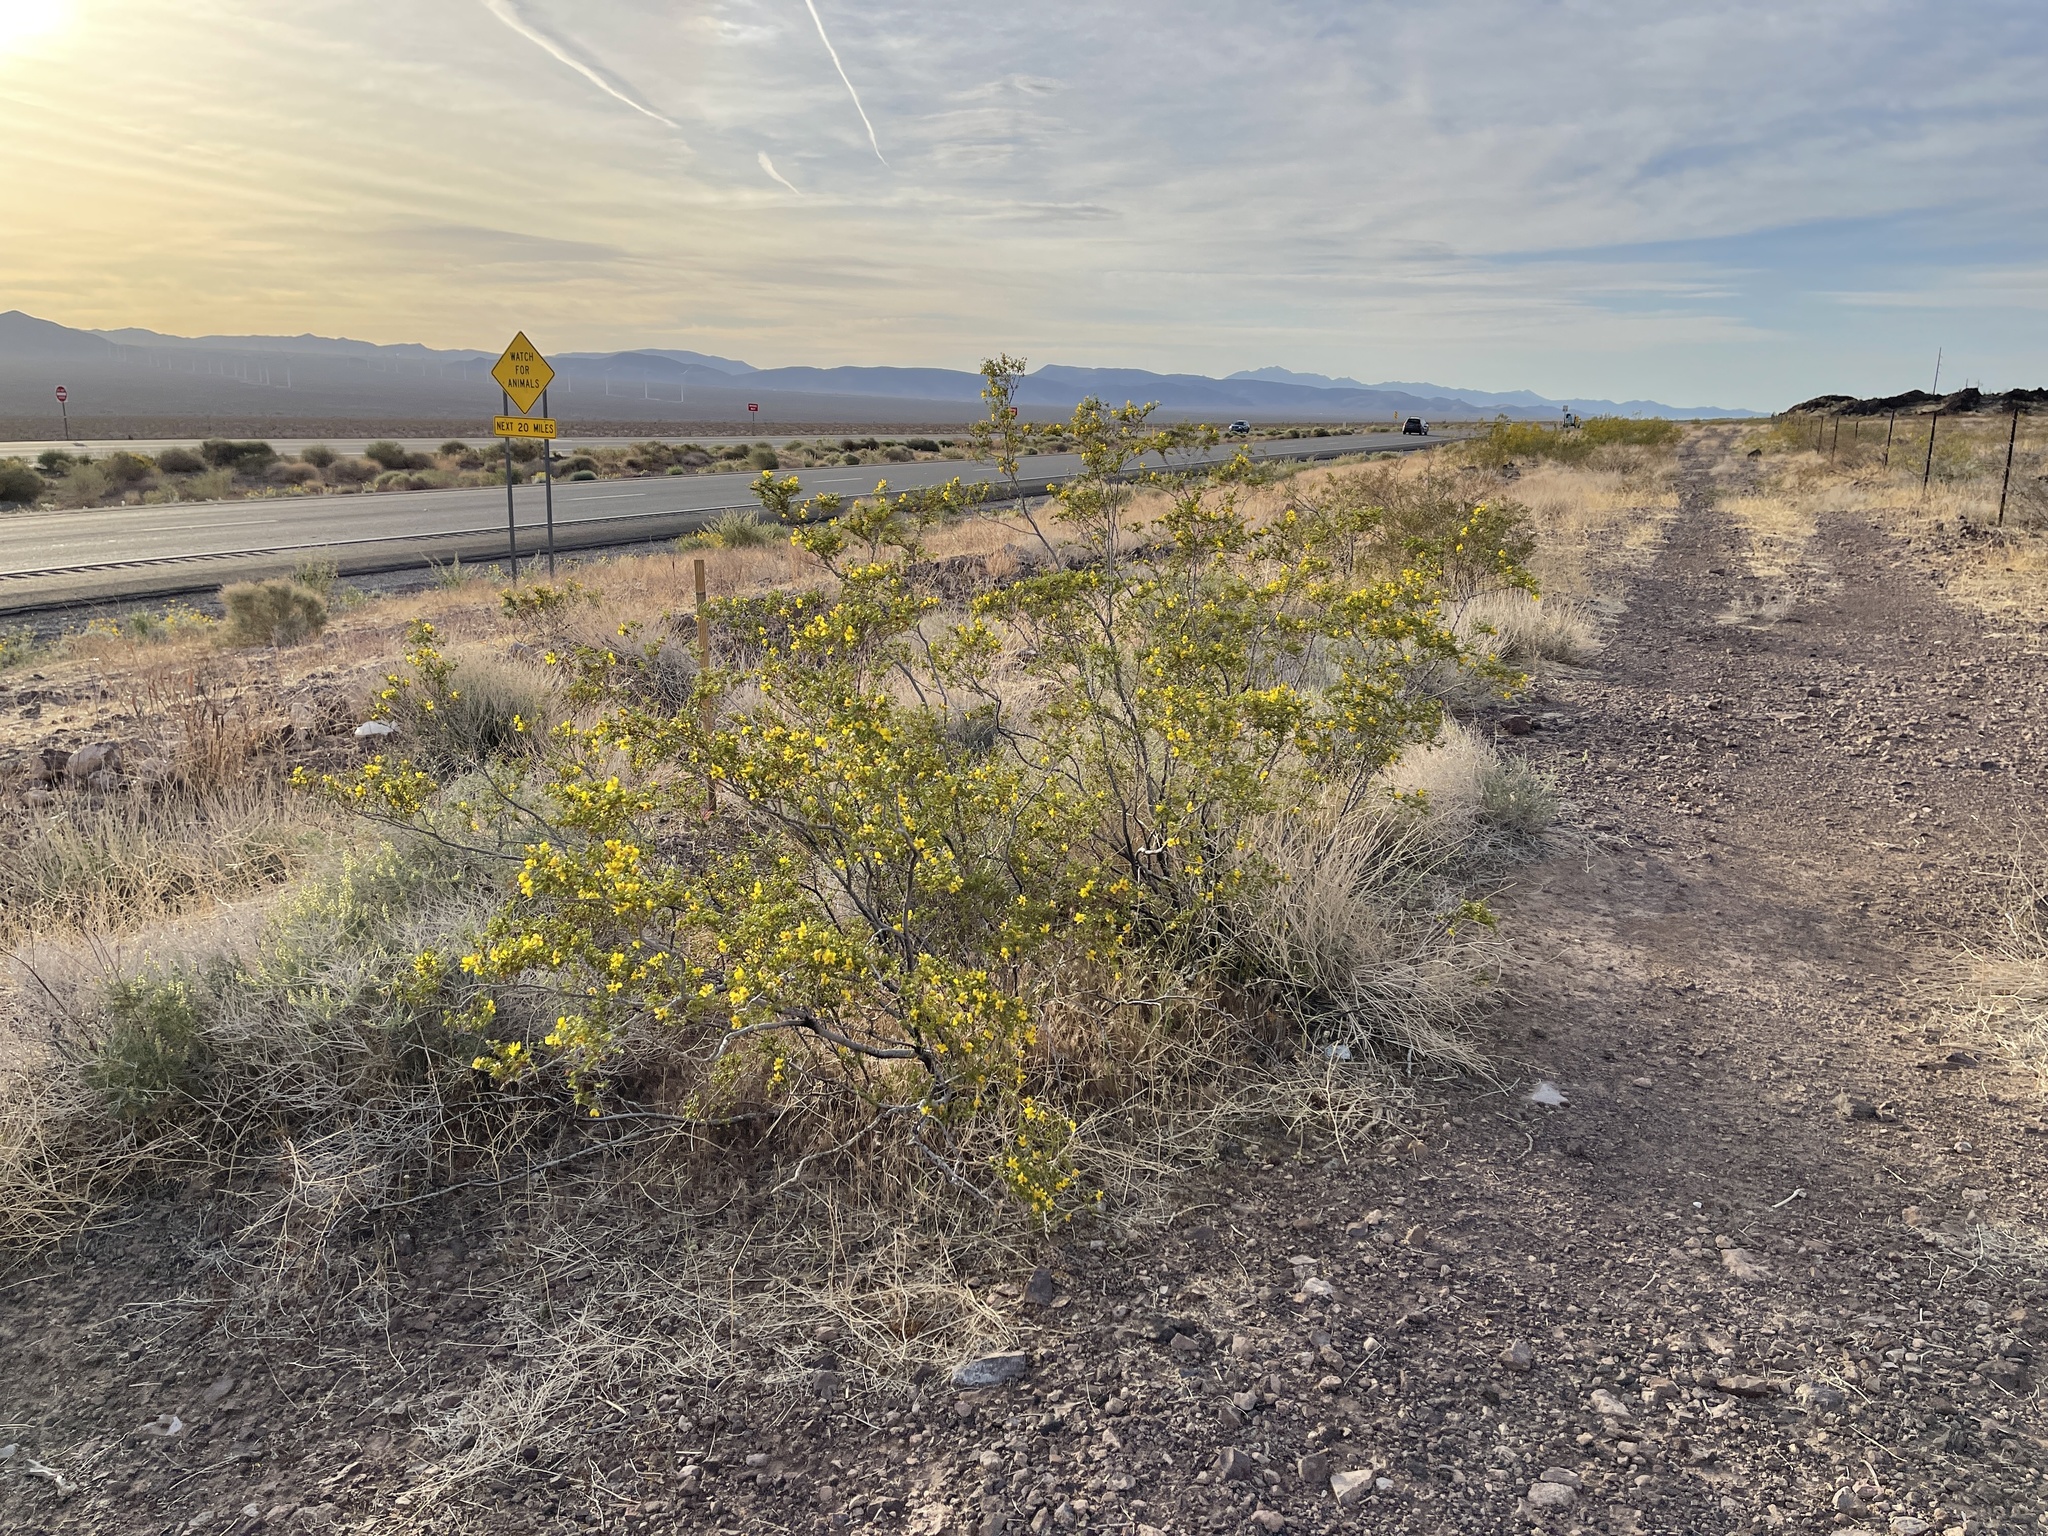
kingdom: Plantae
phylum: Tracheophyta
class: Magnoliopsida
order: Zygophyllales
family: Zygophyllaceae
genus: Larrea
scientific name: Larrea tridentata
